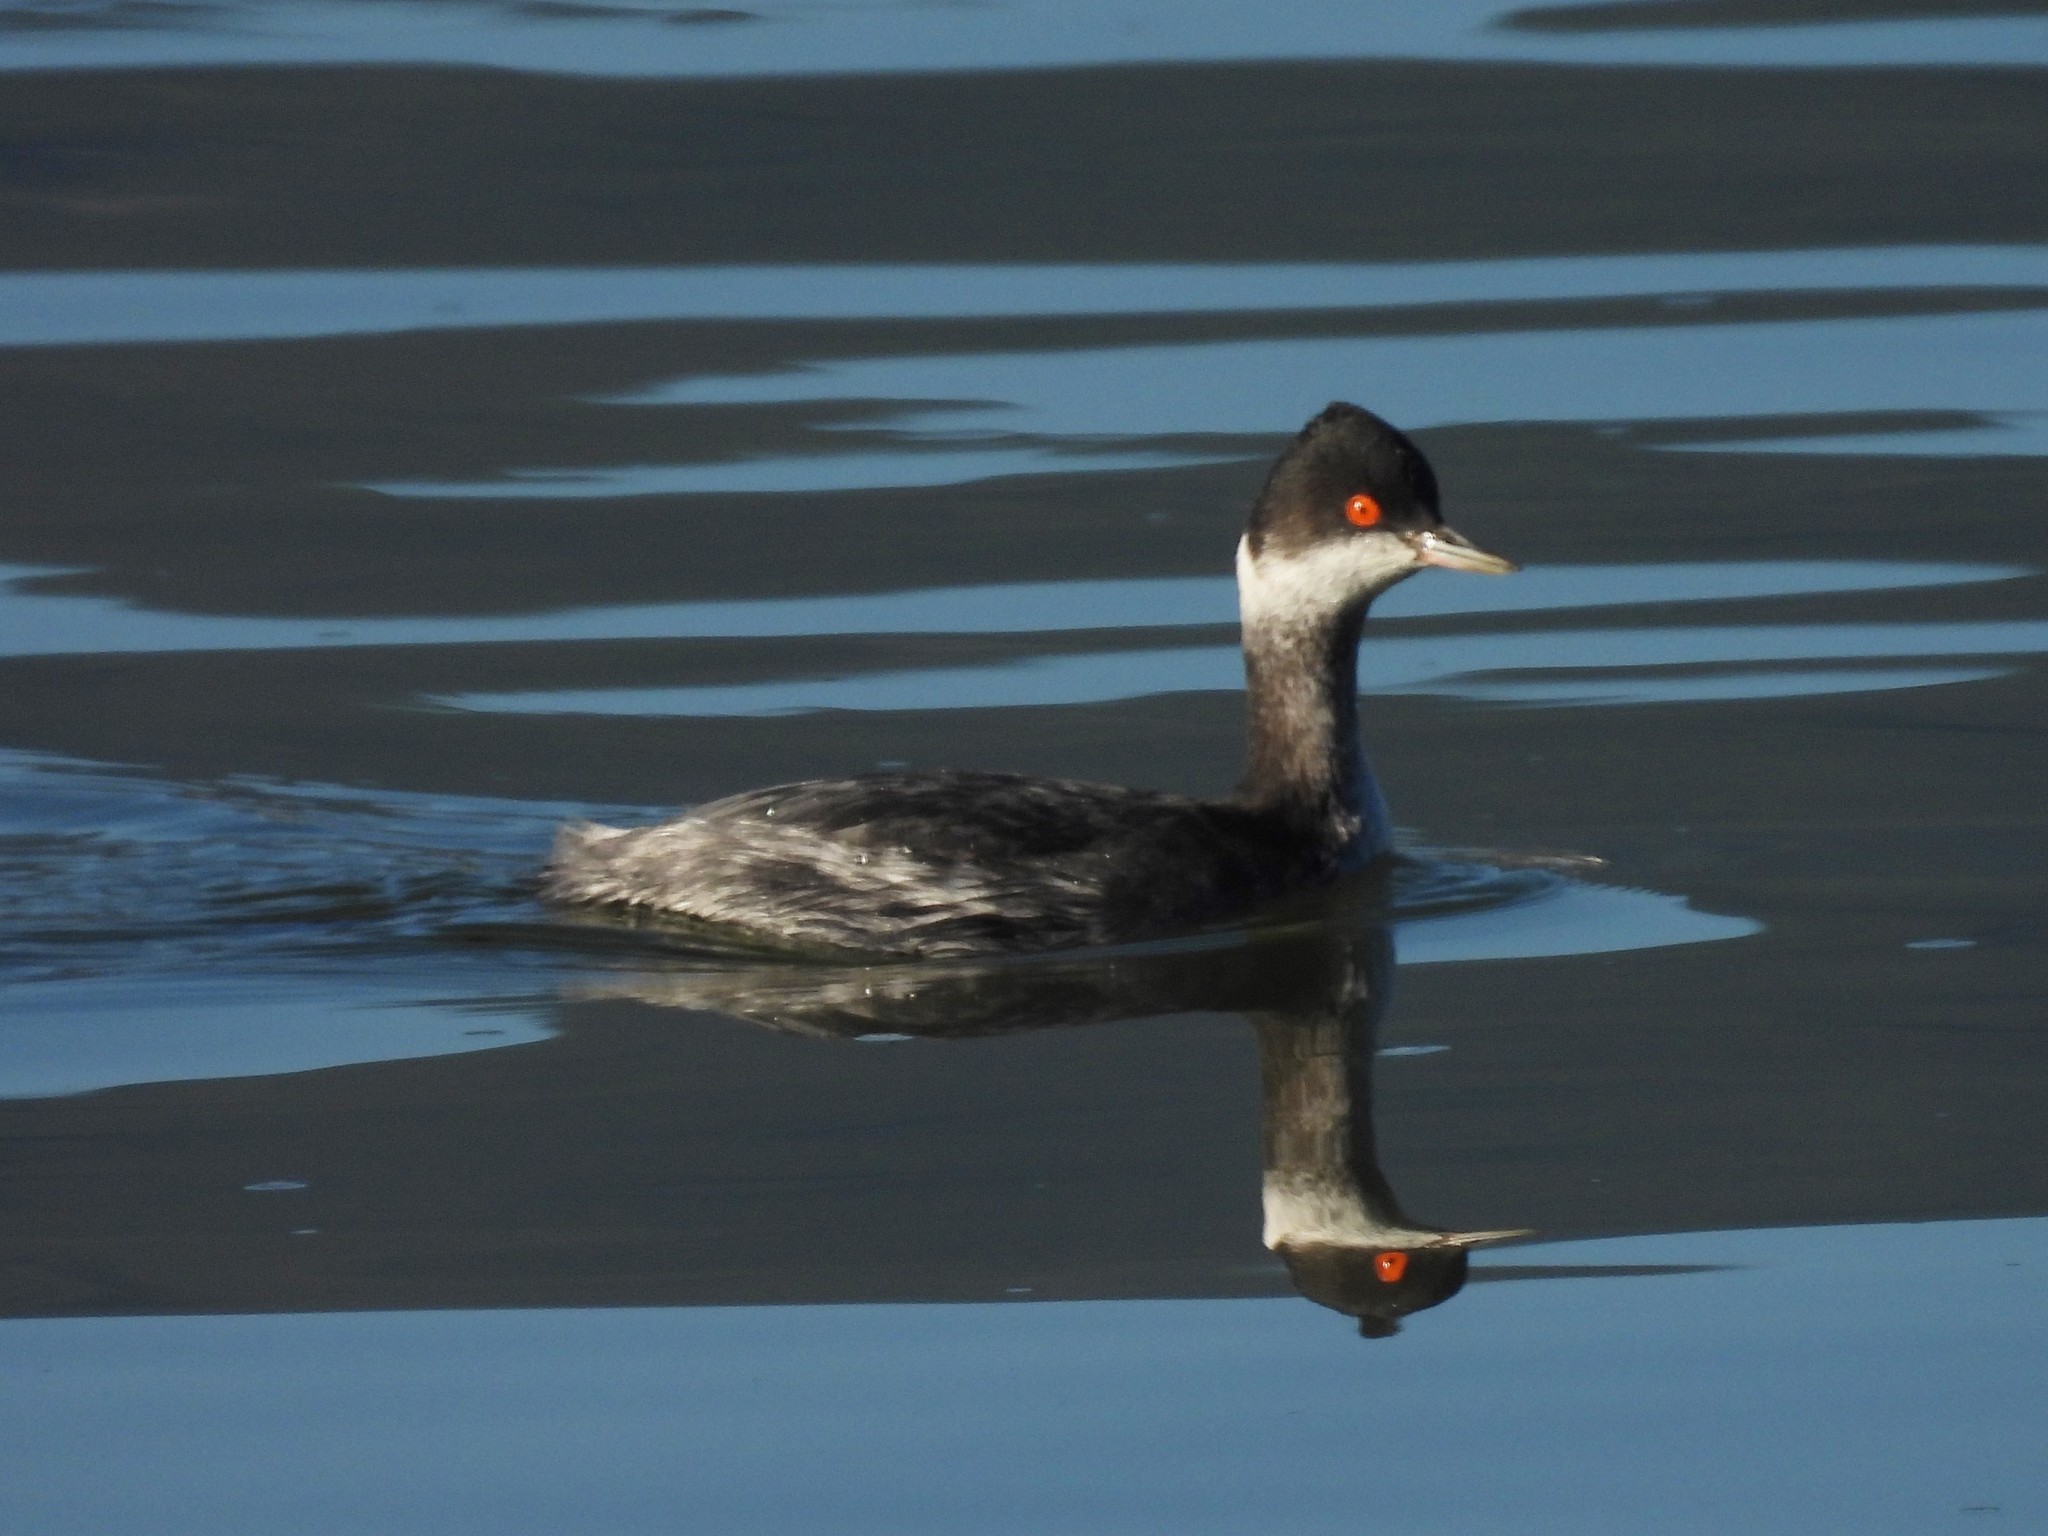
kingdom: Animalia
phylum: Chordata
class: Aves
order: Podicipediformes
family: Podicipedidae
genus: Podiceps
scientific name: Podiceps nigricollis
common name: Black-necked grebe
